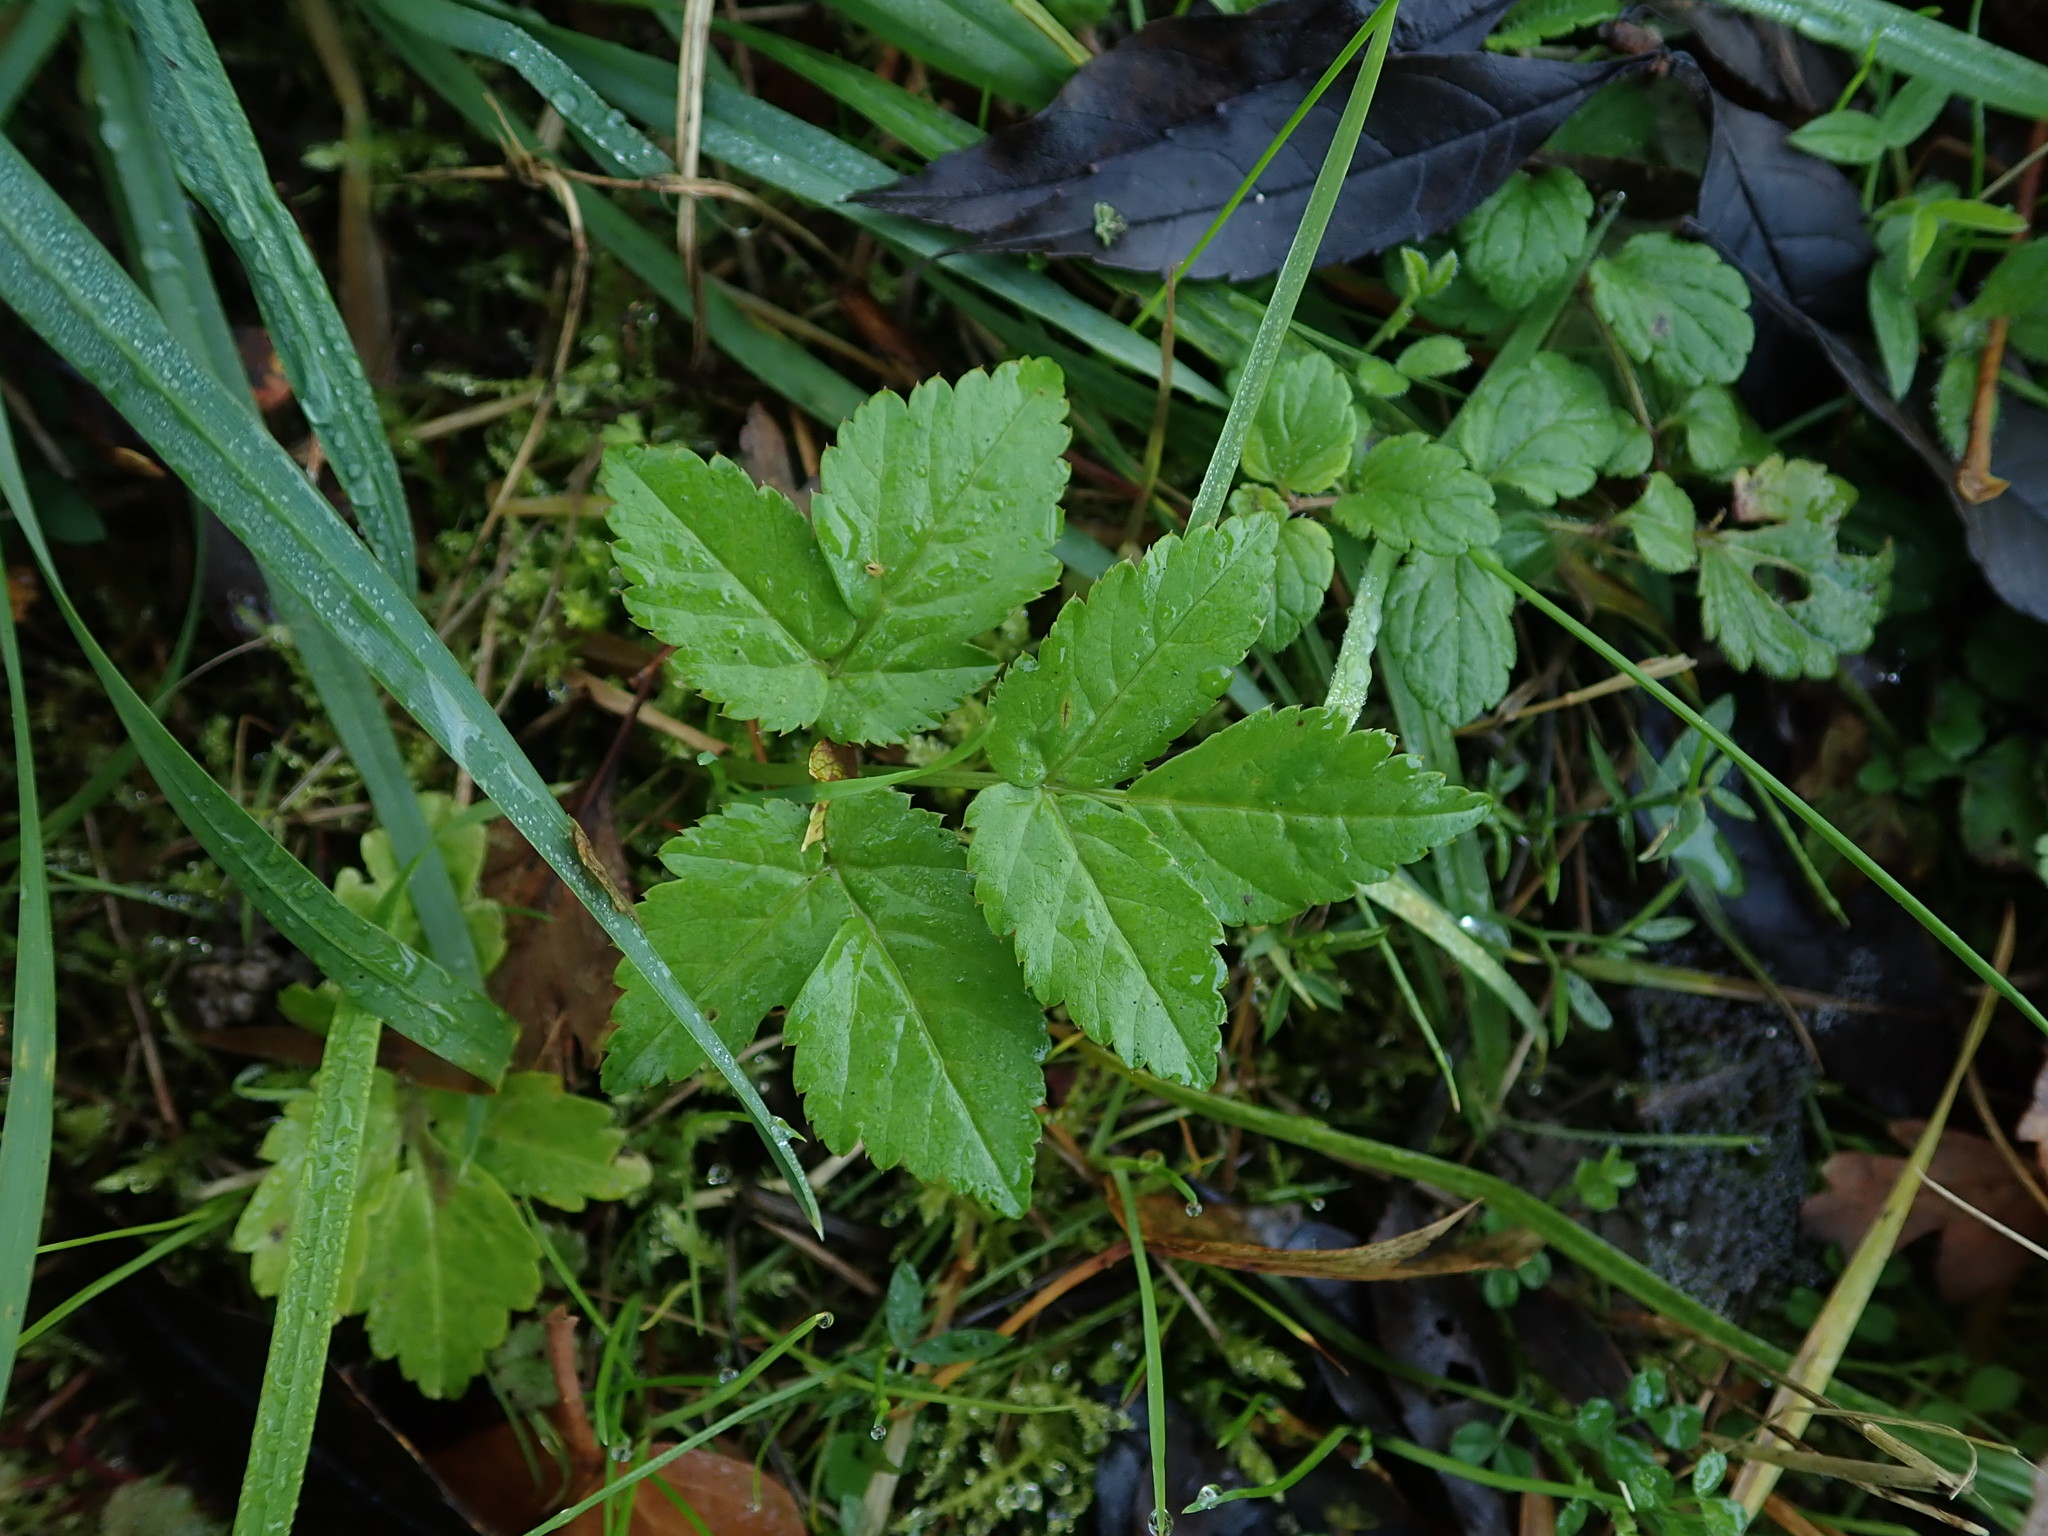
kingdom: Plantae
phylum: Tracheophyta
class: Magnoliopsida
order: Apiales
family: Apiaceae
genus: Aegopodium
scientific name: Aegopodium podagraria
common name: Ground-elder
